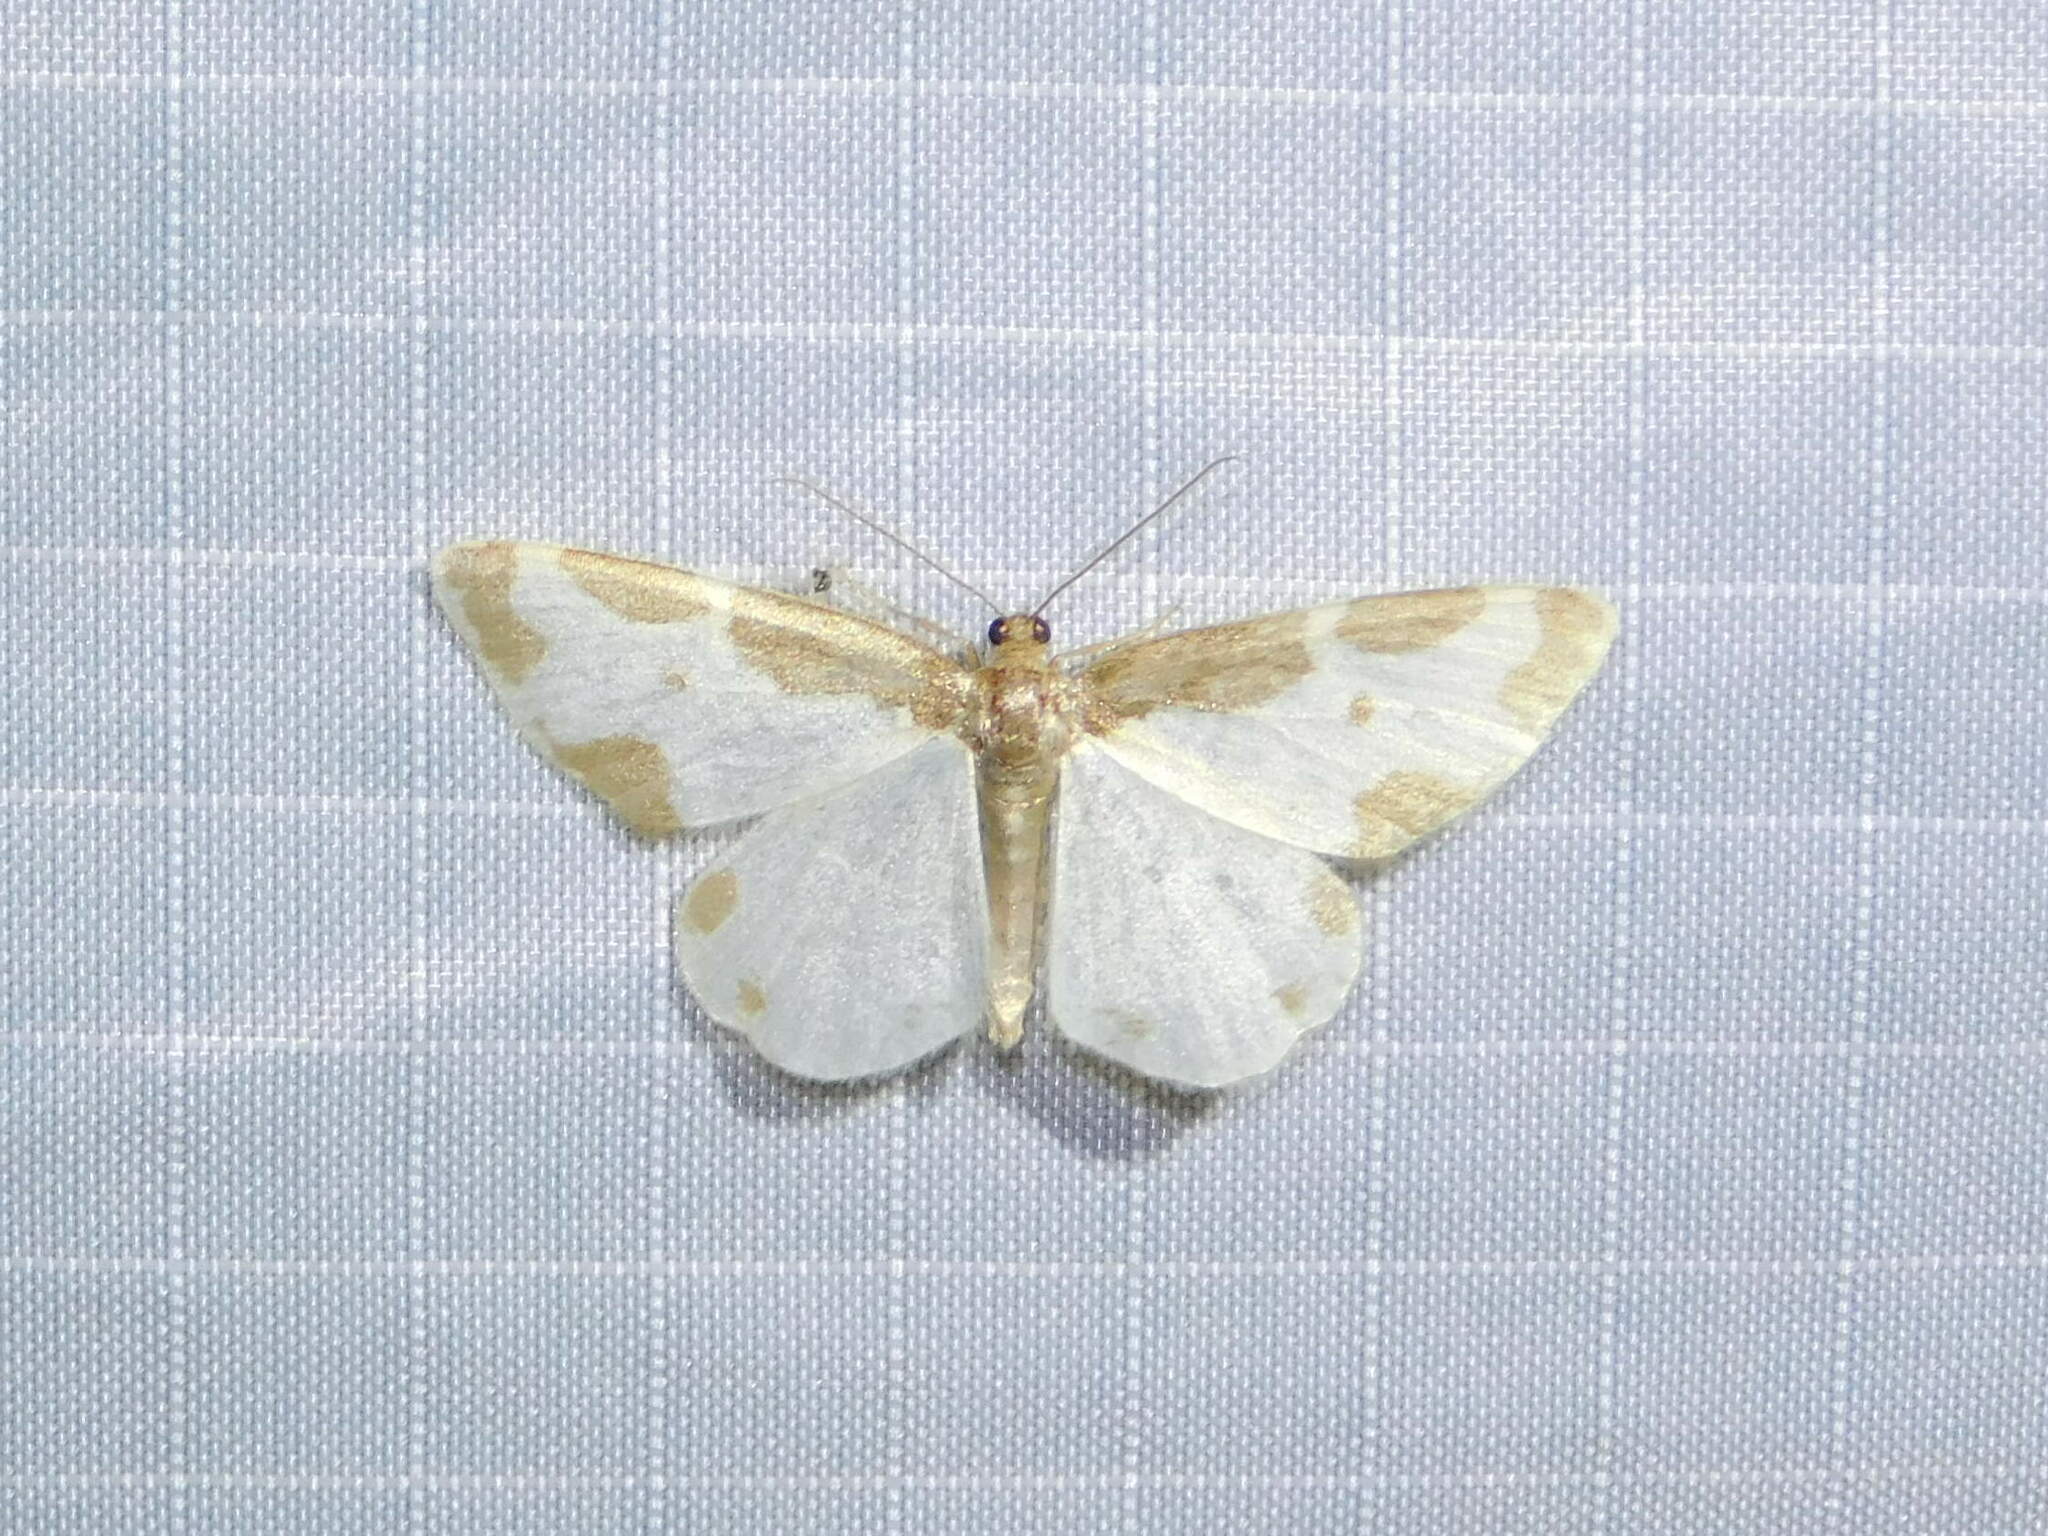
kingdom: Animalia
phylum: Arthropoda
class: Insecta
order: Lepidoptera
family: Geometridae
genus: Lomaspilis
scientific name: Lomaspilis marginata
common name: Clouded border
